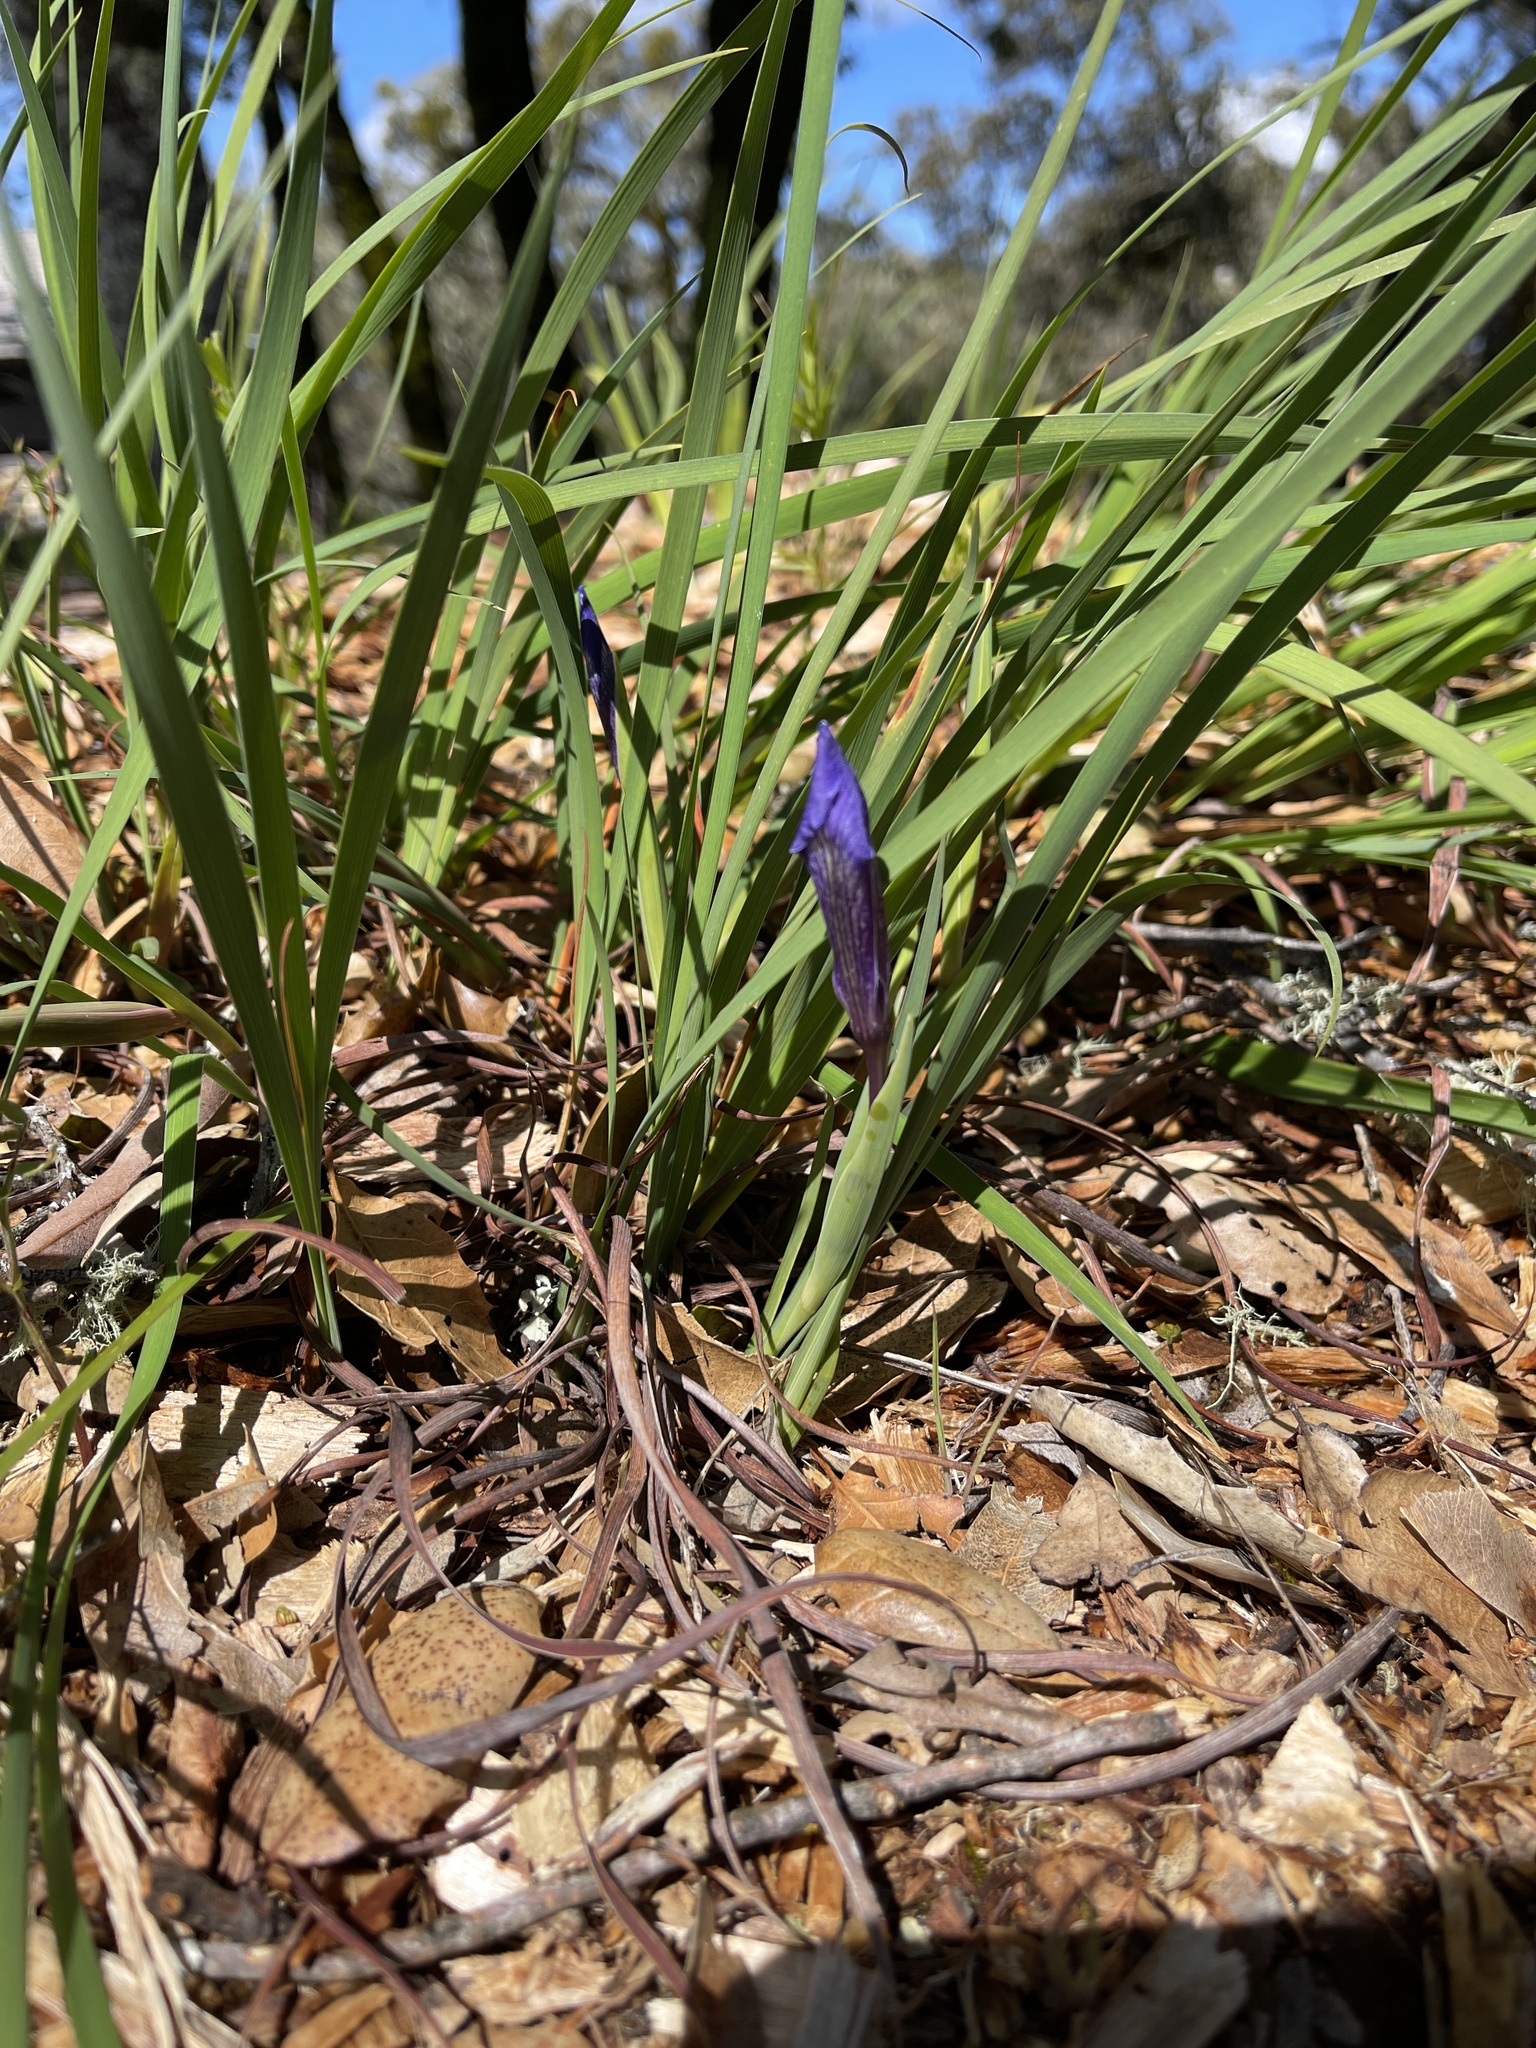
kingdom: Plantae
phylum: Tracheophyta
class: Liliopsida
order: Asparagales
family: Iridaceae
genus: Iris
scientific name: Iris macrosiphon
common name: Ground iris
